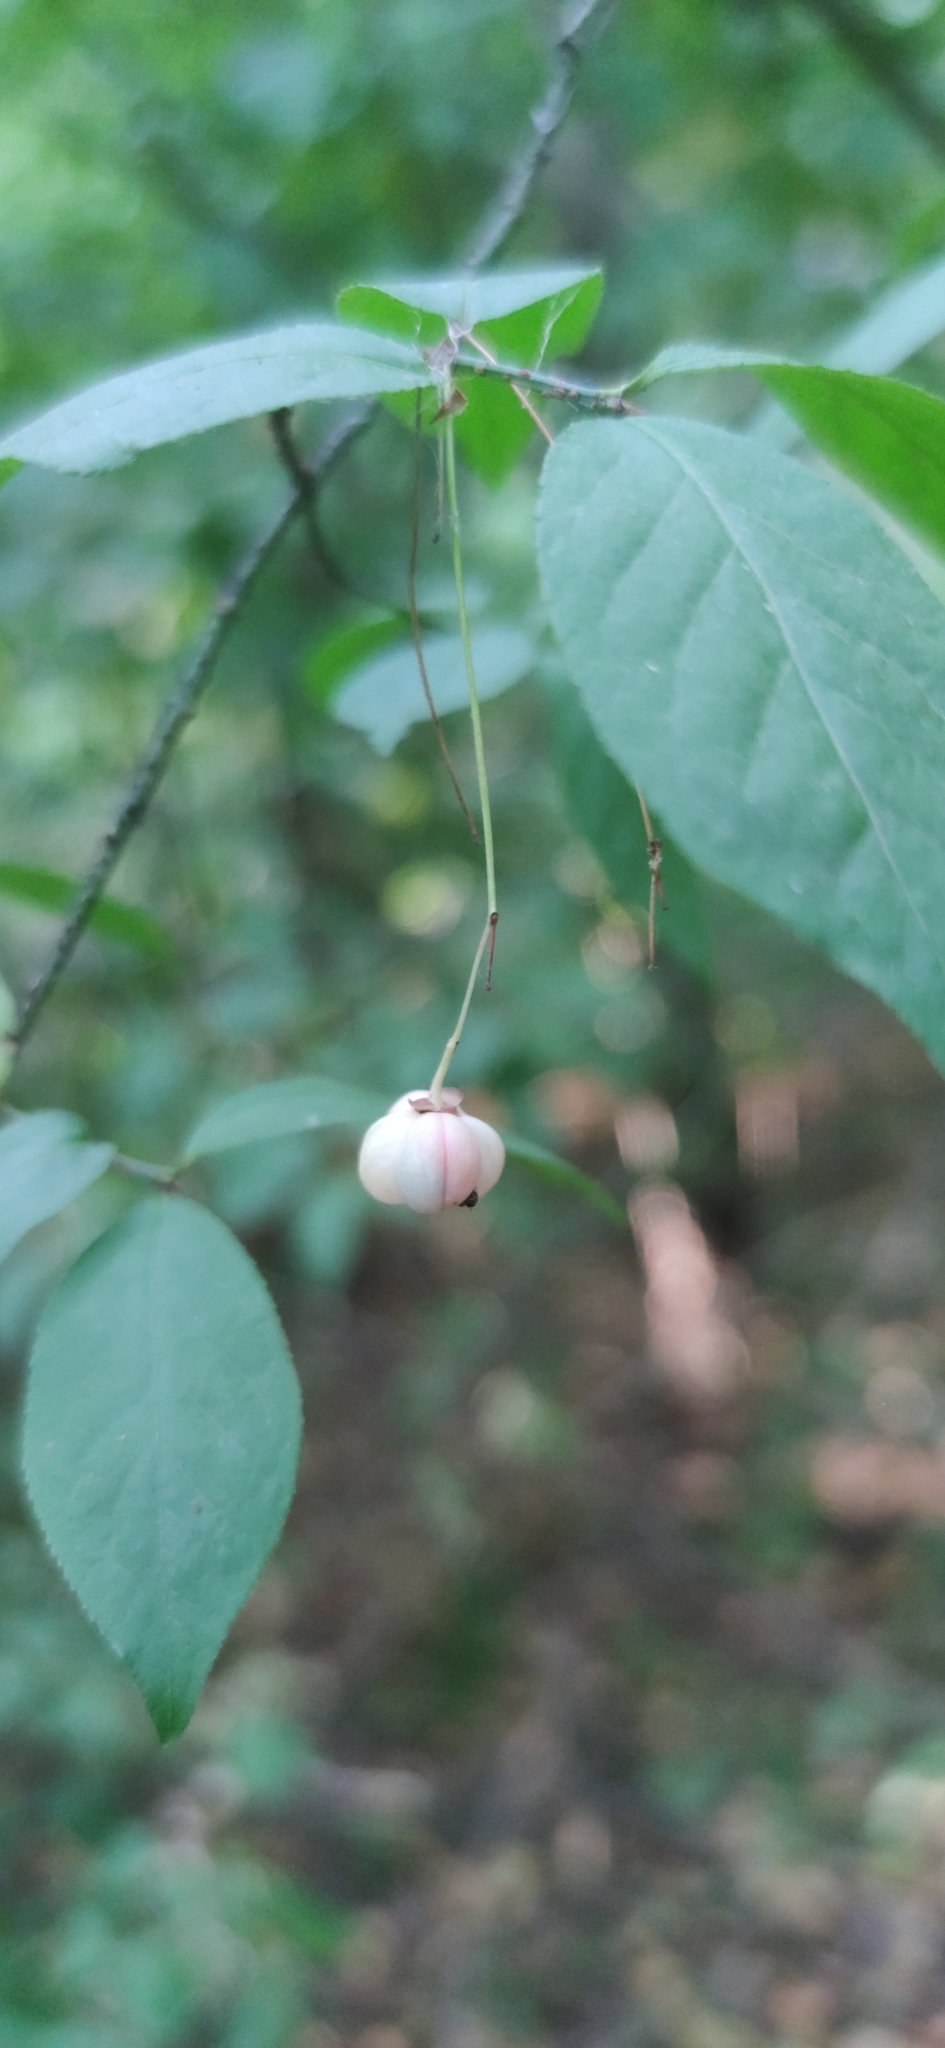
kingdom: Plantae
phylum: Tracheophyta
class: Magnoliopsida
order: Celastrales
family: Celastraceae
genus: Euonymus
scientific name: Euonymus verrucosus
